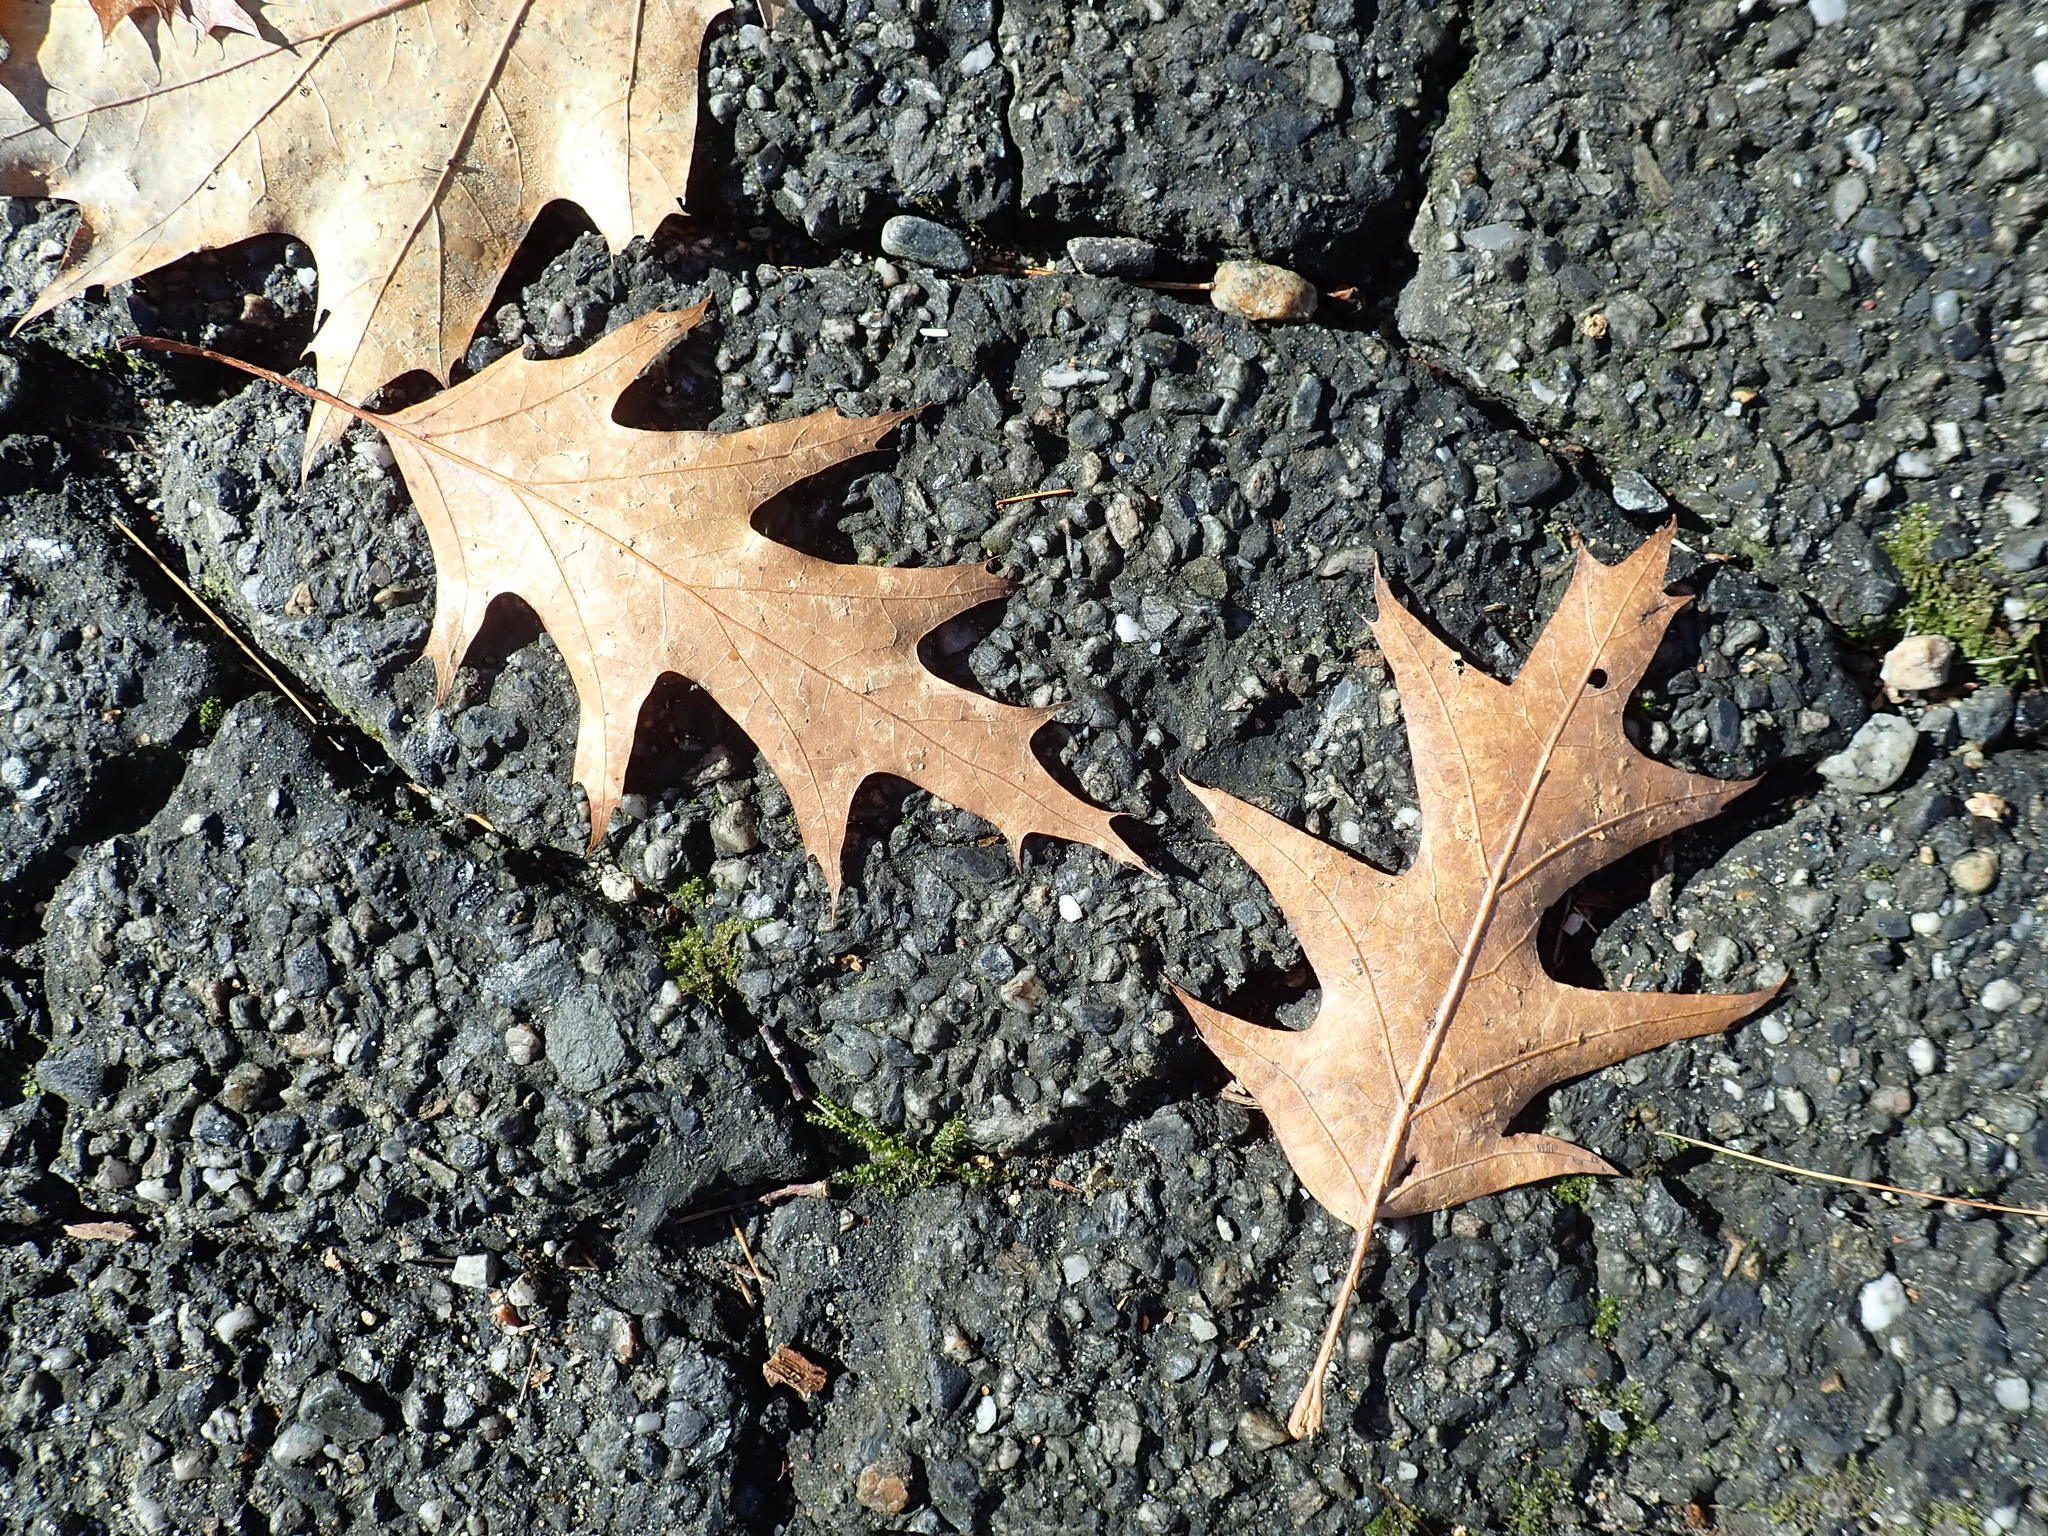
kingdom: Plantae
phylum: Tracheophyta
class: Magnoliopsida
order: Fagales
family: Fagaceae
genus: Quercus
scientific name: Quercus rubra
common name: Red oak
